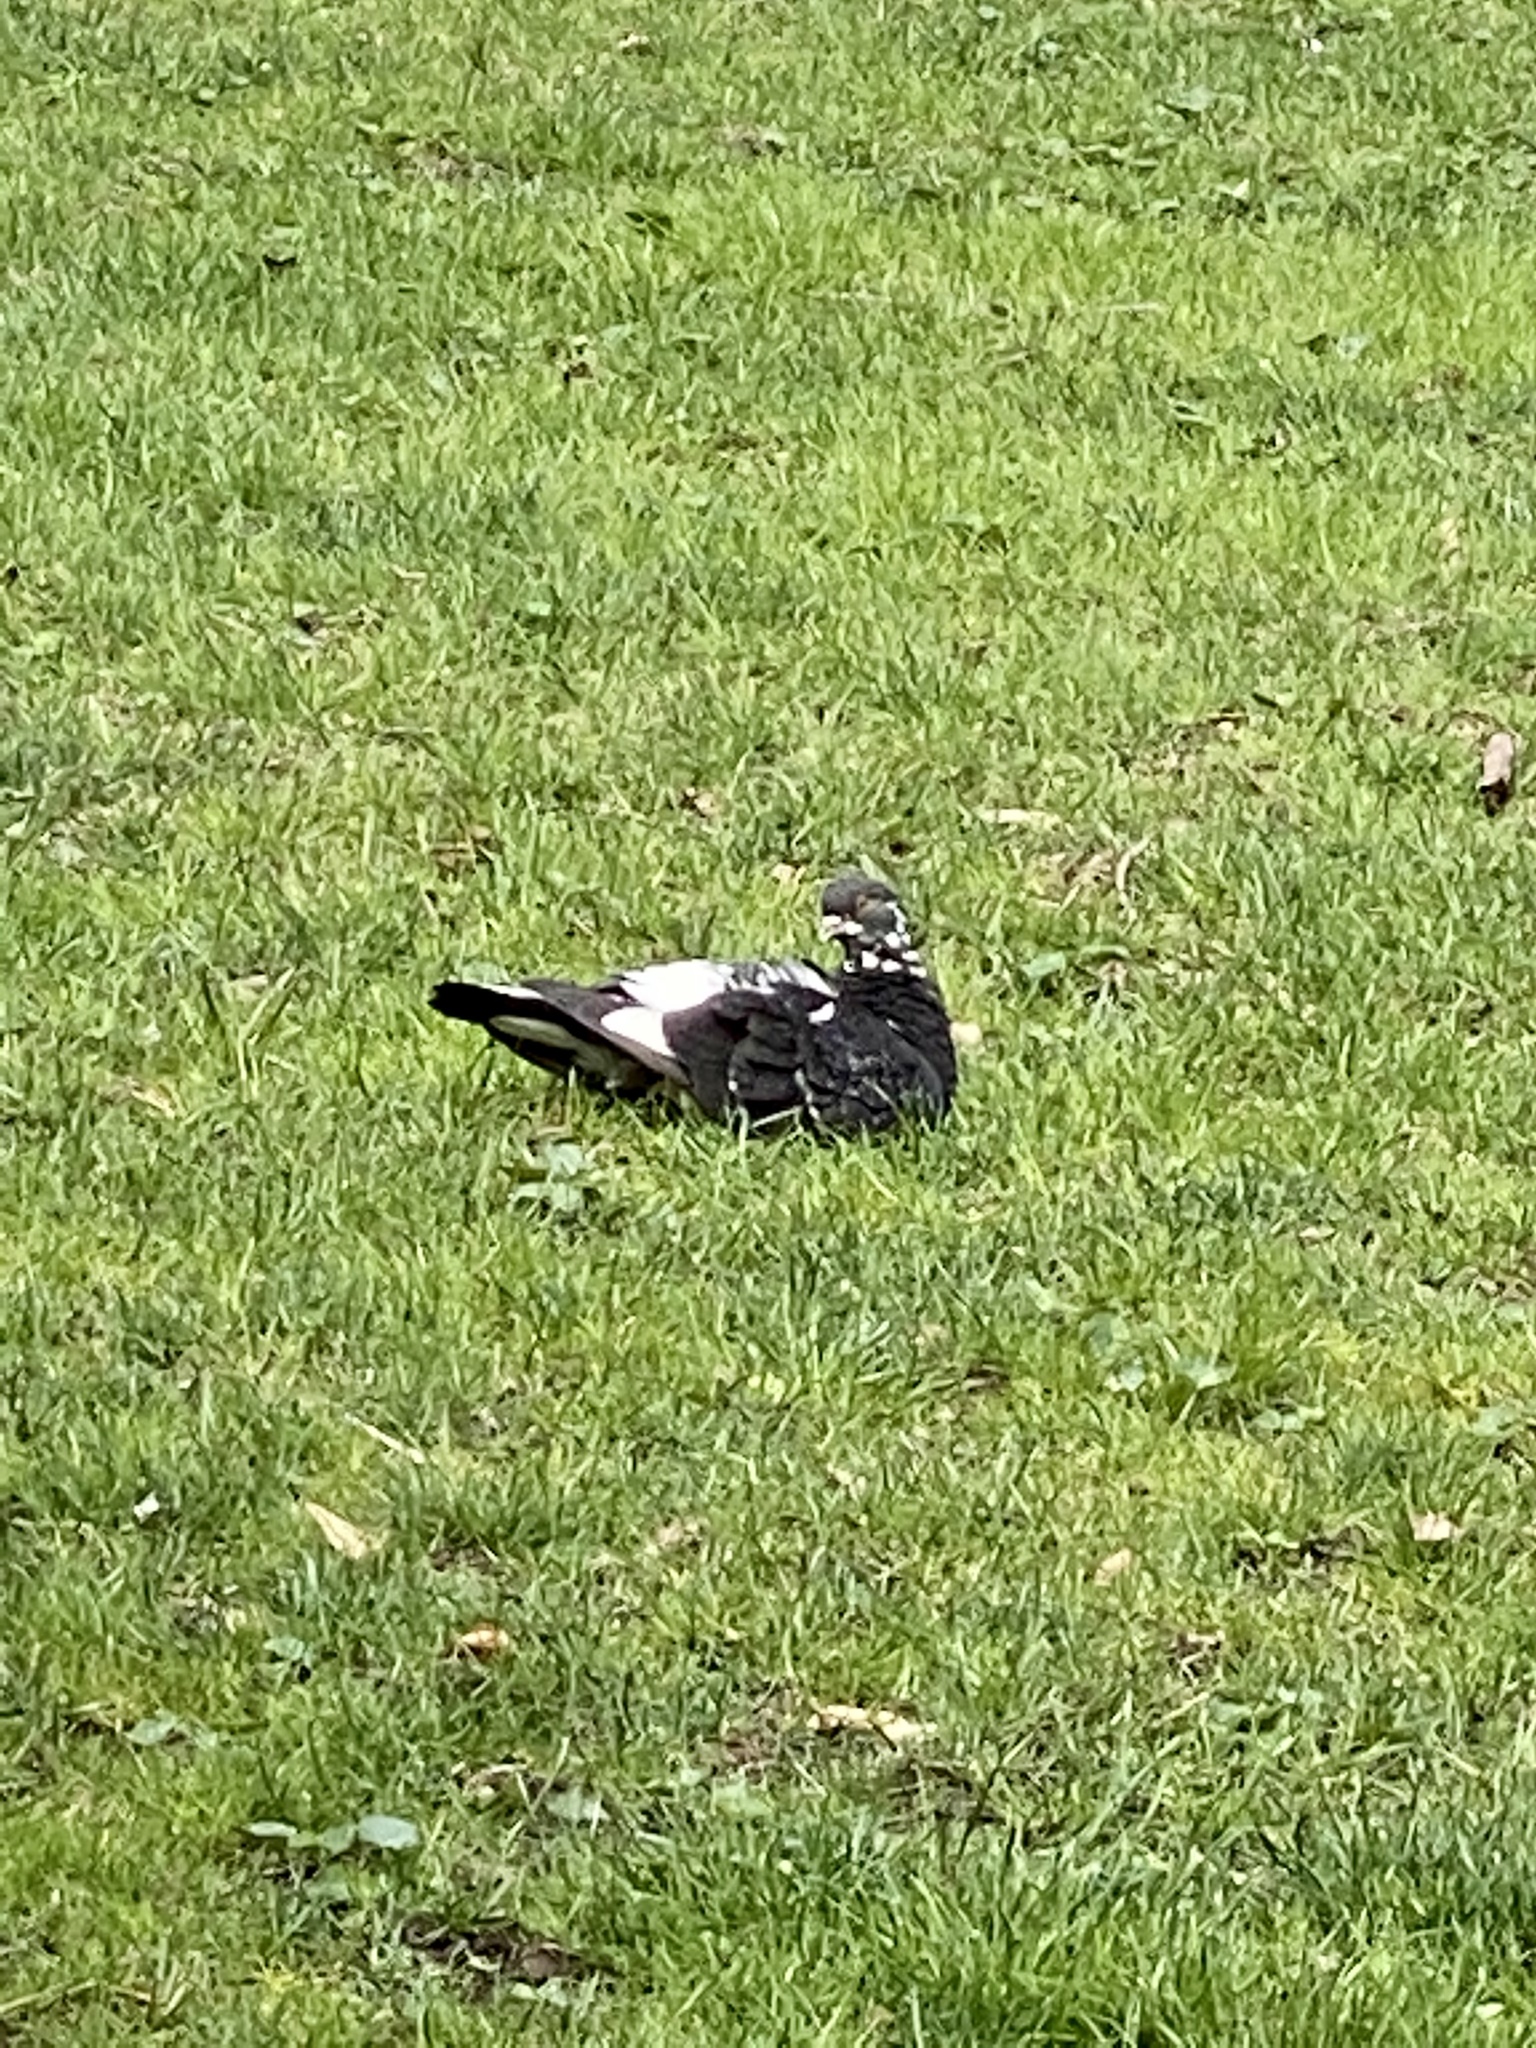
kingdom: Animalia
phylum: Chordata
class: Aves
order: Columbiformes
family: Columbidae
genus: Columba
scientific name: Columba livia
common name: Rock pigeon
